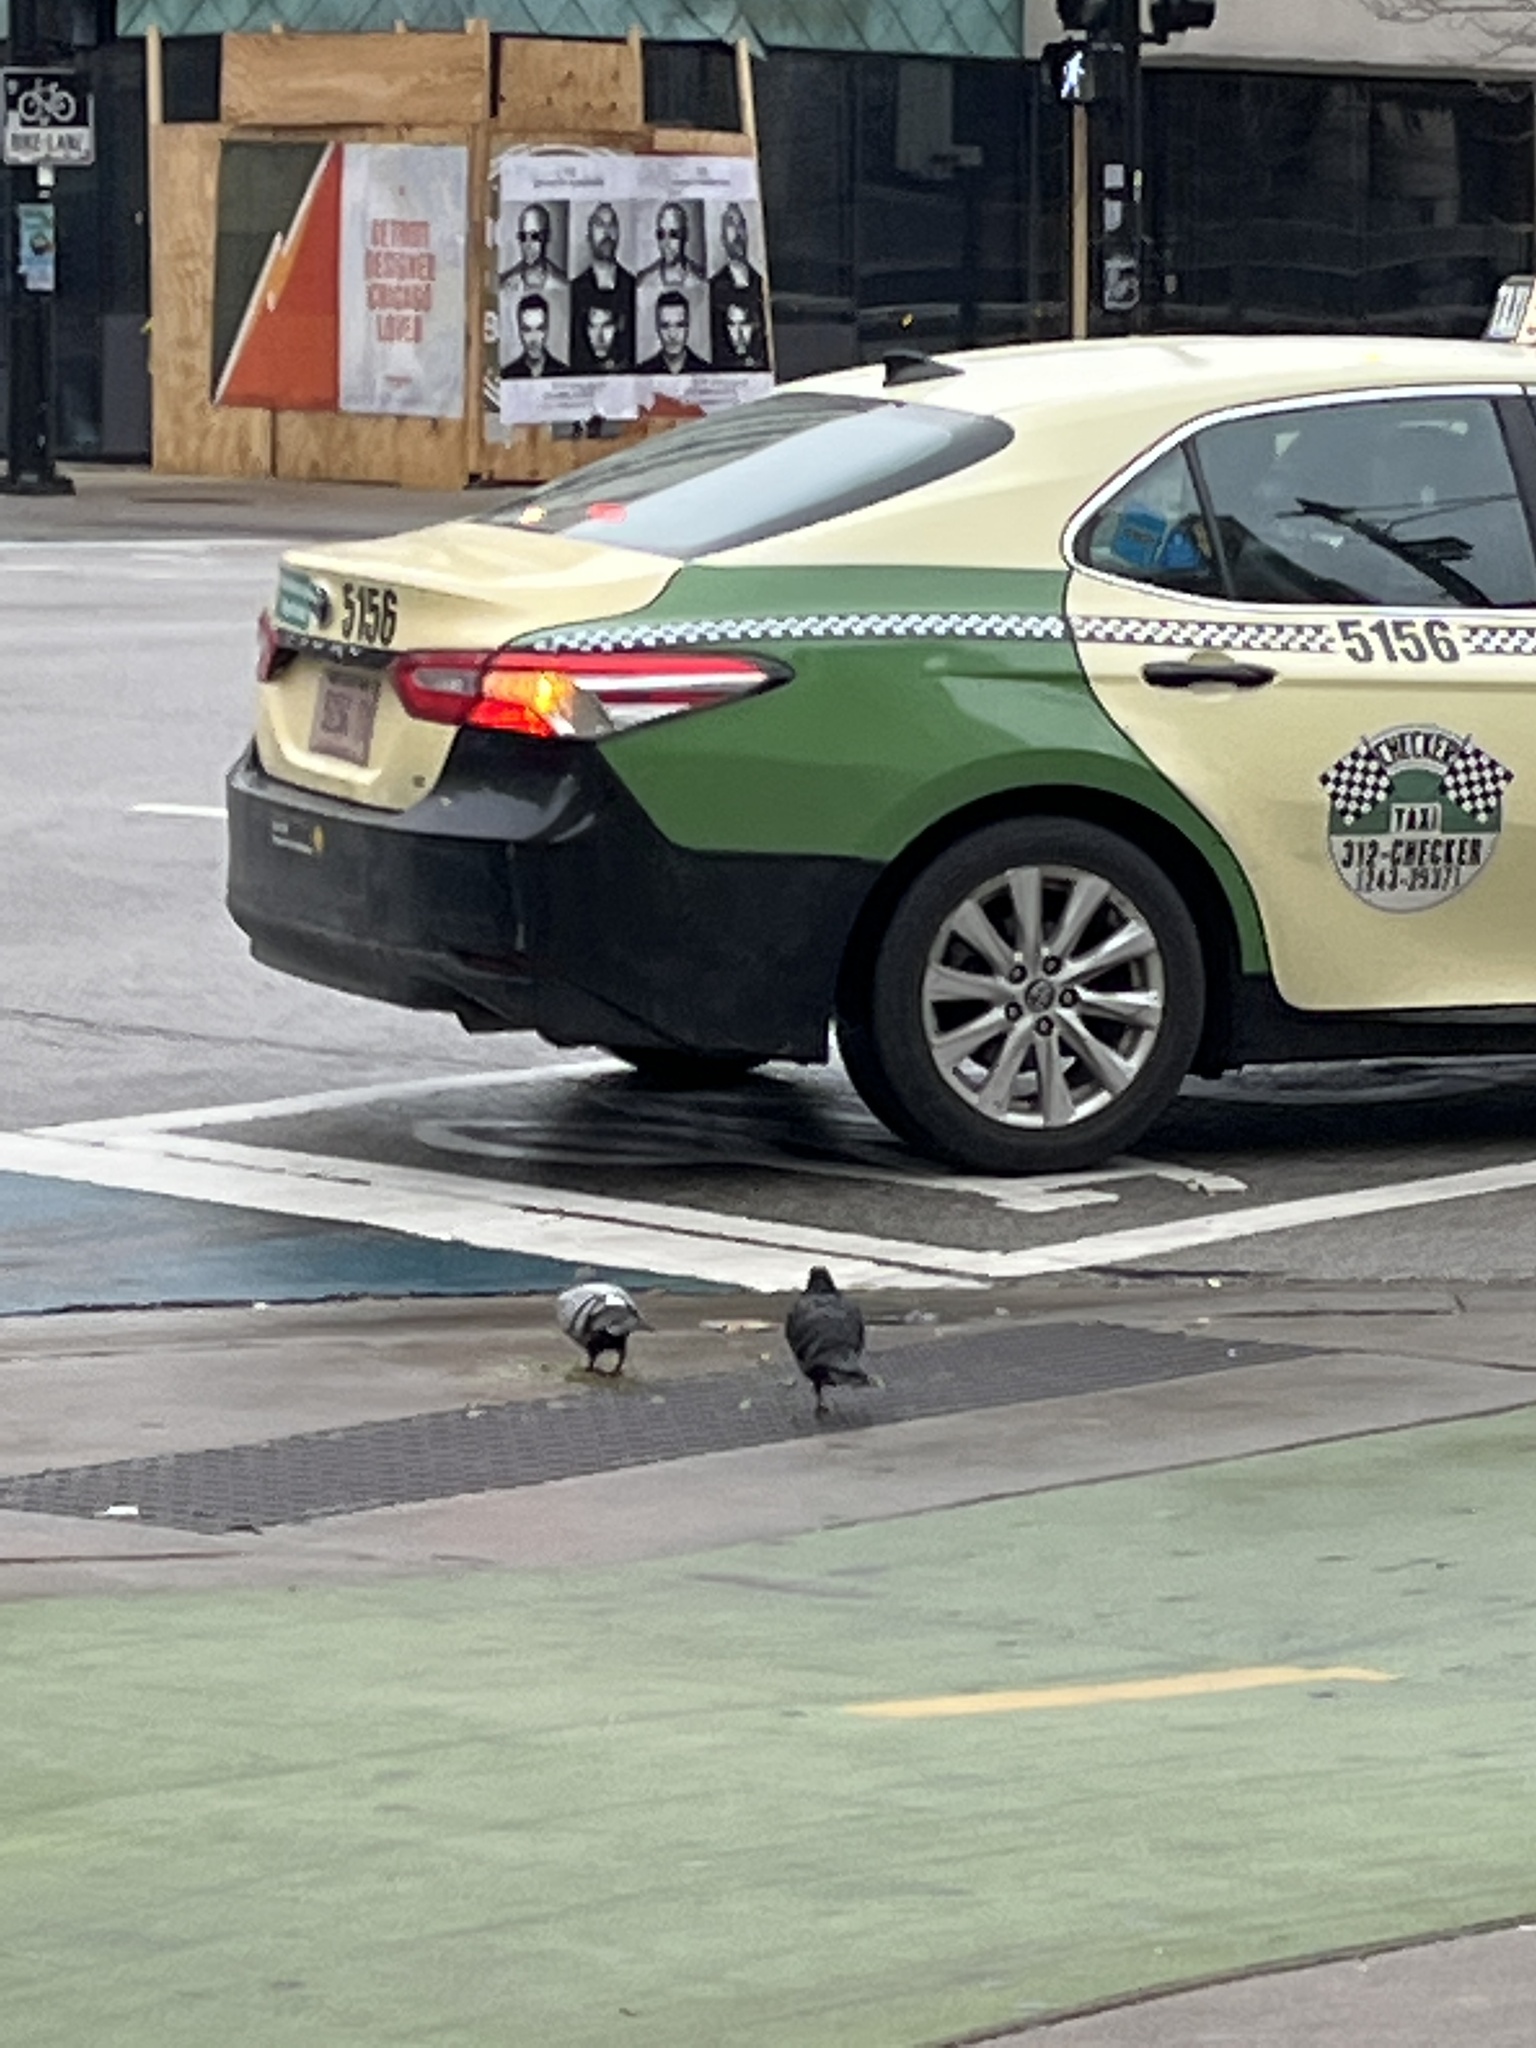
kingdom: Animalia
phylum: Chordata
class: Aves
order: Columbiformes
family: Columbidae
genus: Columba
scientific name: Columba livia
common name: Rock pigeon
